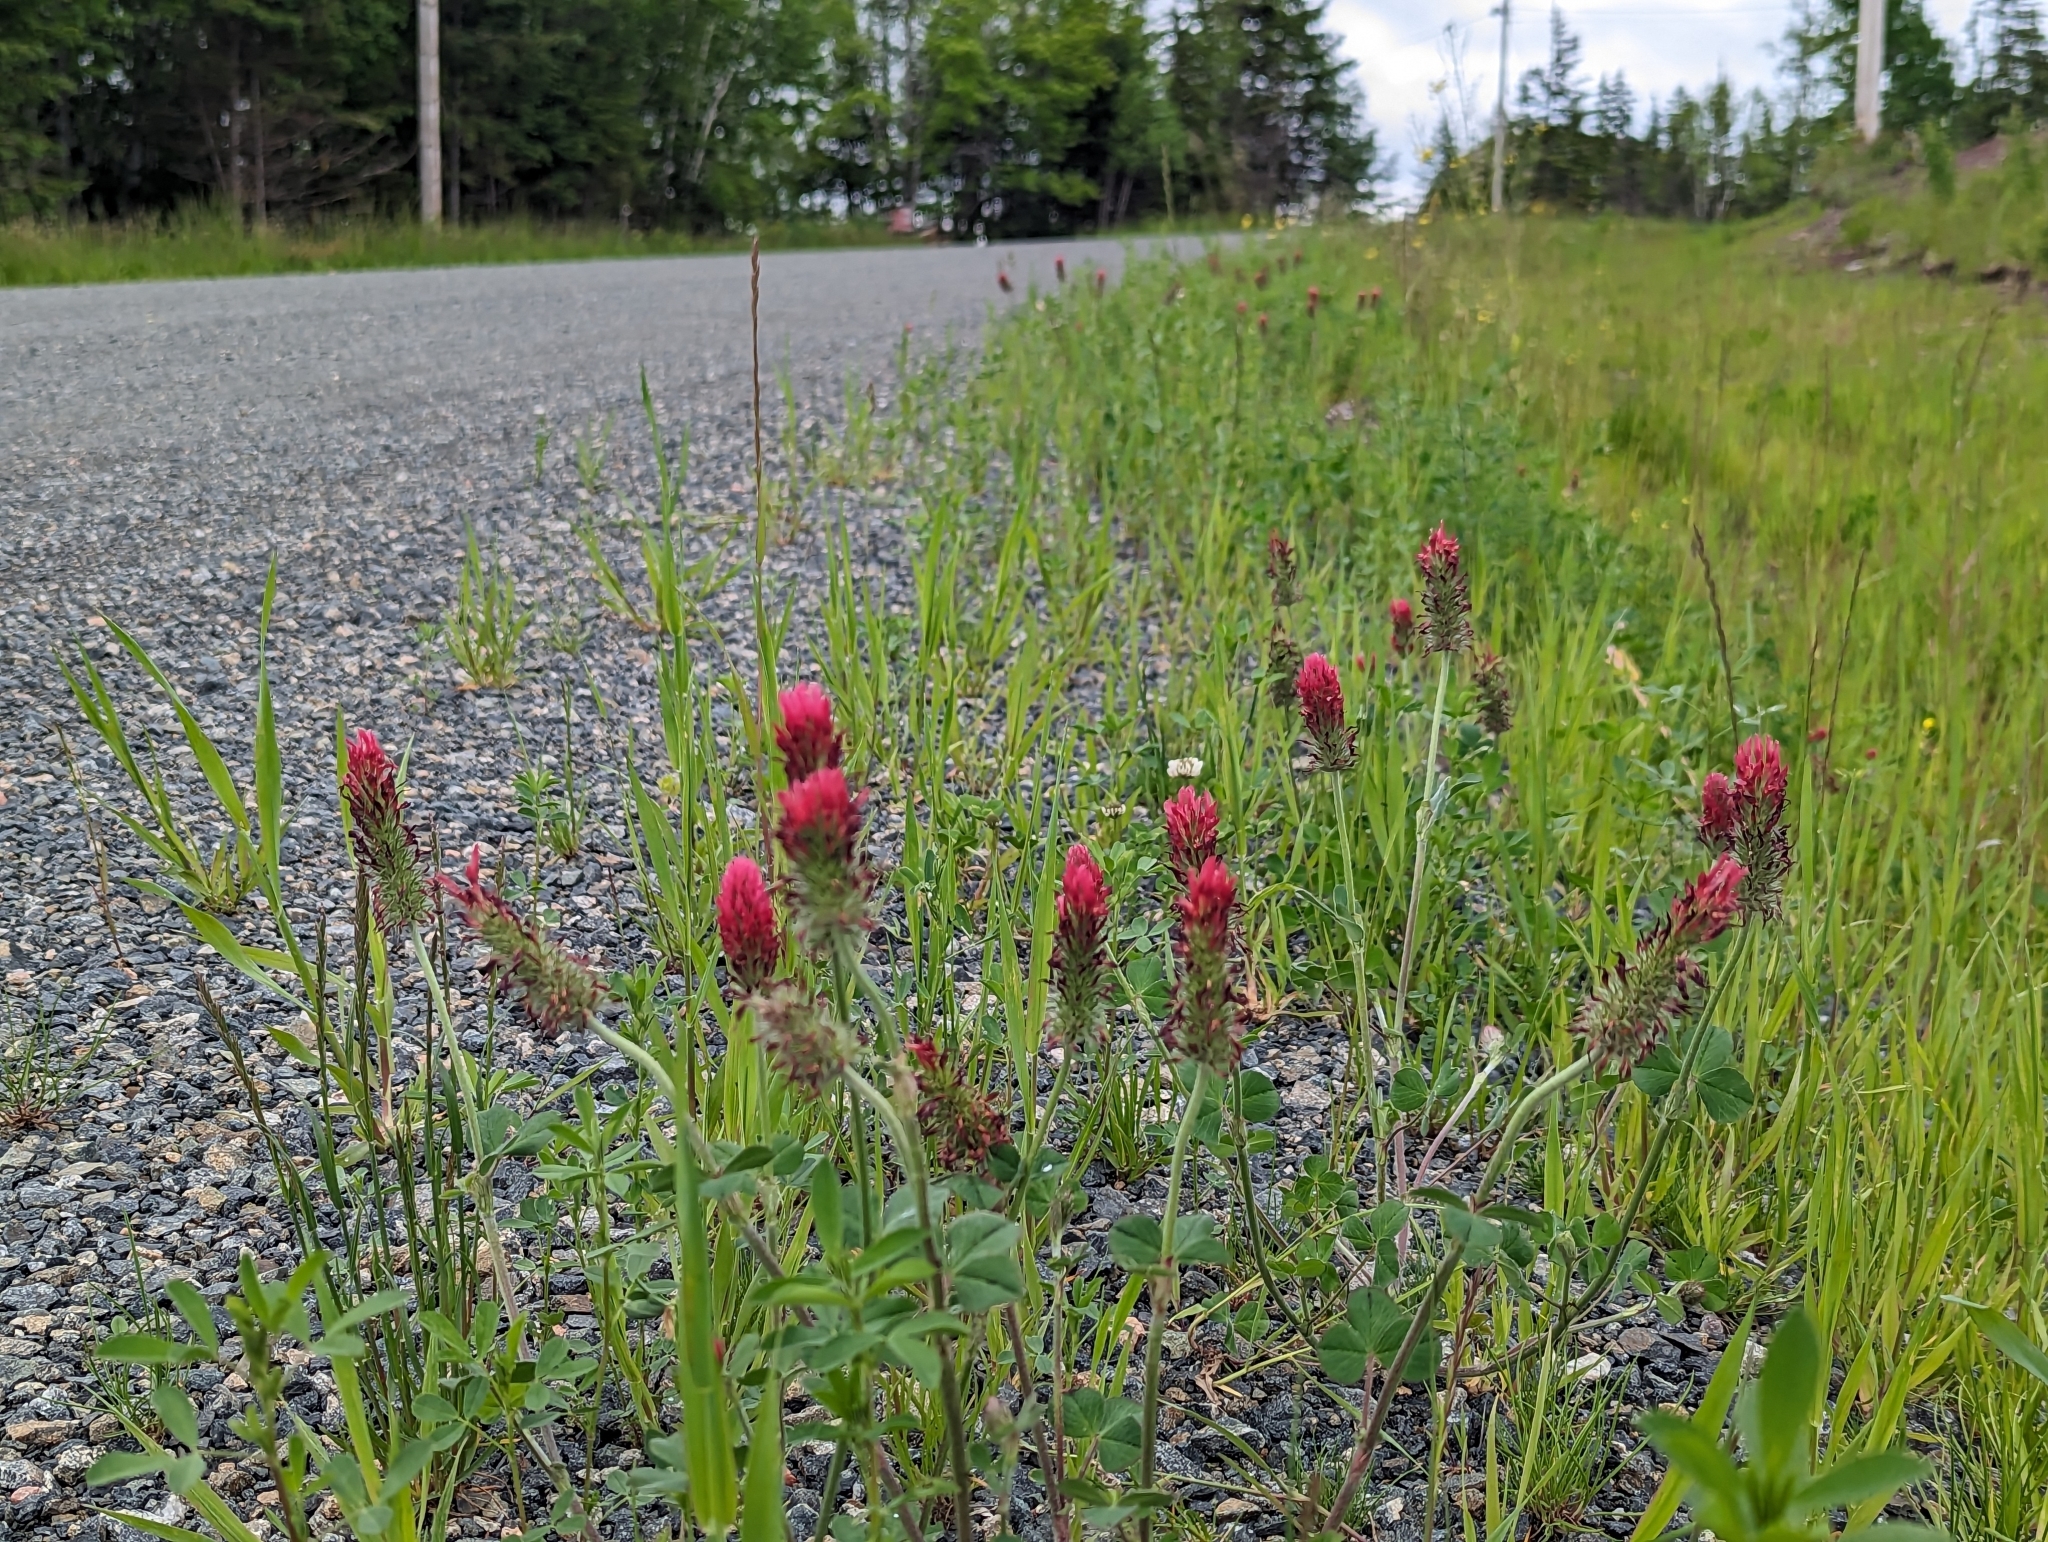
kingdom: Plantae
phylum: Tracheophyta
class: Magnoliopsida
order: Fabales
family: Fabaceae
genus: Trifolium
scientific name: Trifolium incarnatum
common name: Crimson clover
